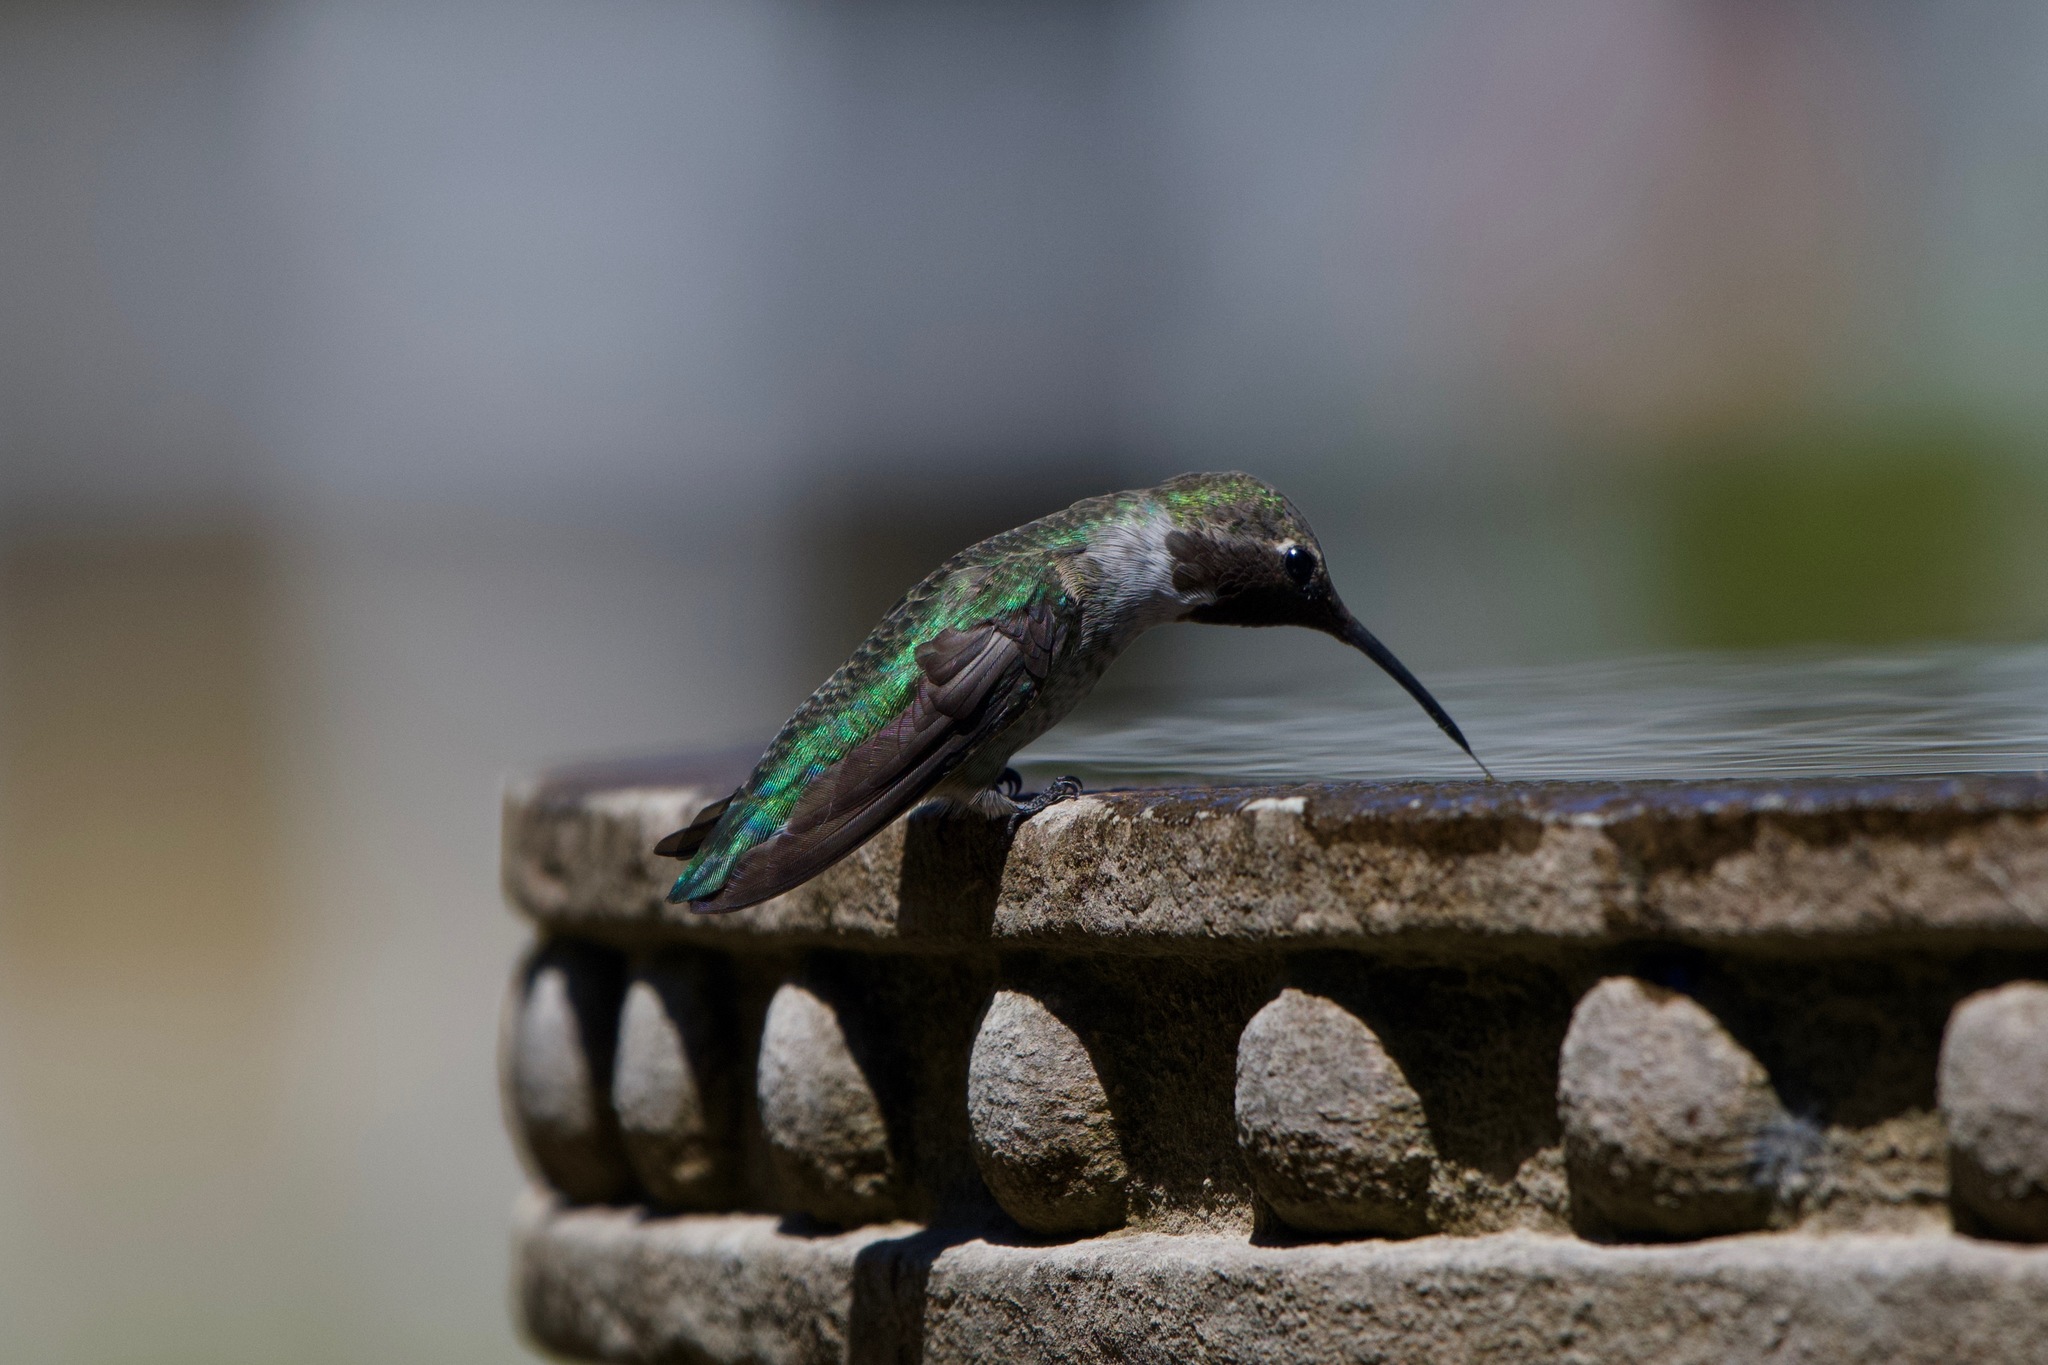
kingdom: Animalia
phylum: Chordata
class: Aves
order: Apodiformes
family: Trochilidae
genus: Calypte
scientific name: Calypte anna
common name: Anna's hummingbird
